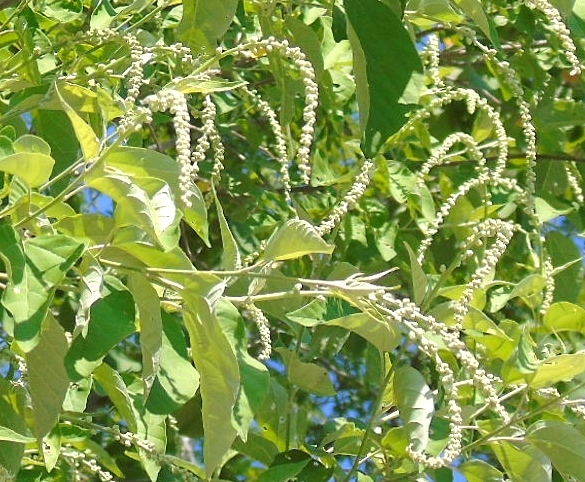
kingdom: Plantae
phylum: Tracheophyta
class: Magnoliopsida
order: Malpighiales
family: Euphorbiaceae
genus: Croton
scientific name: Croton
